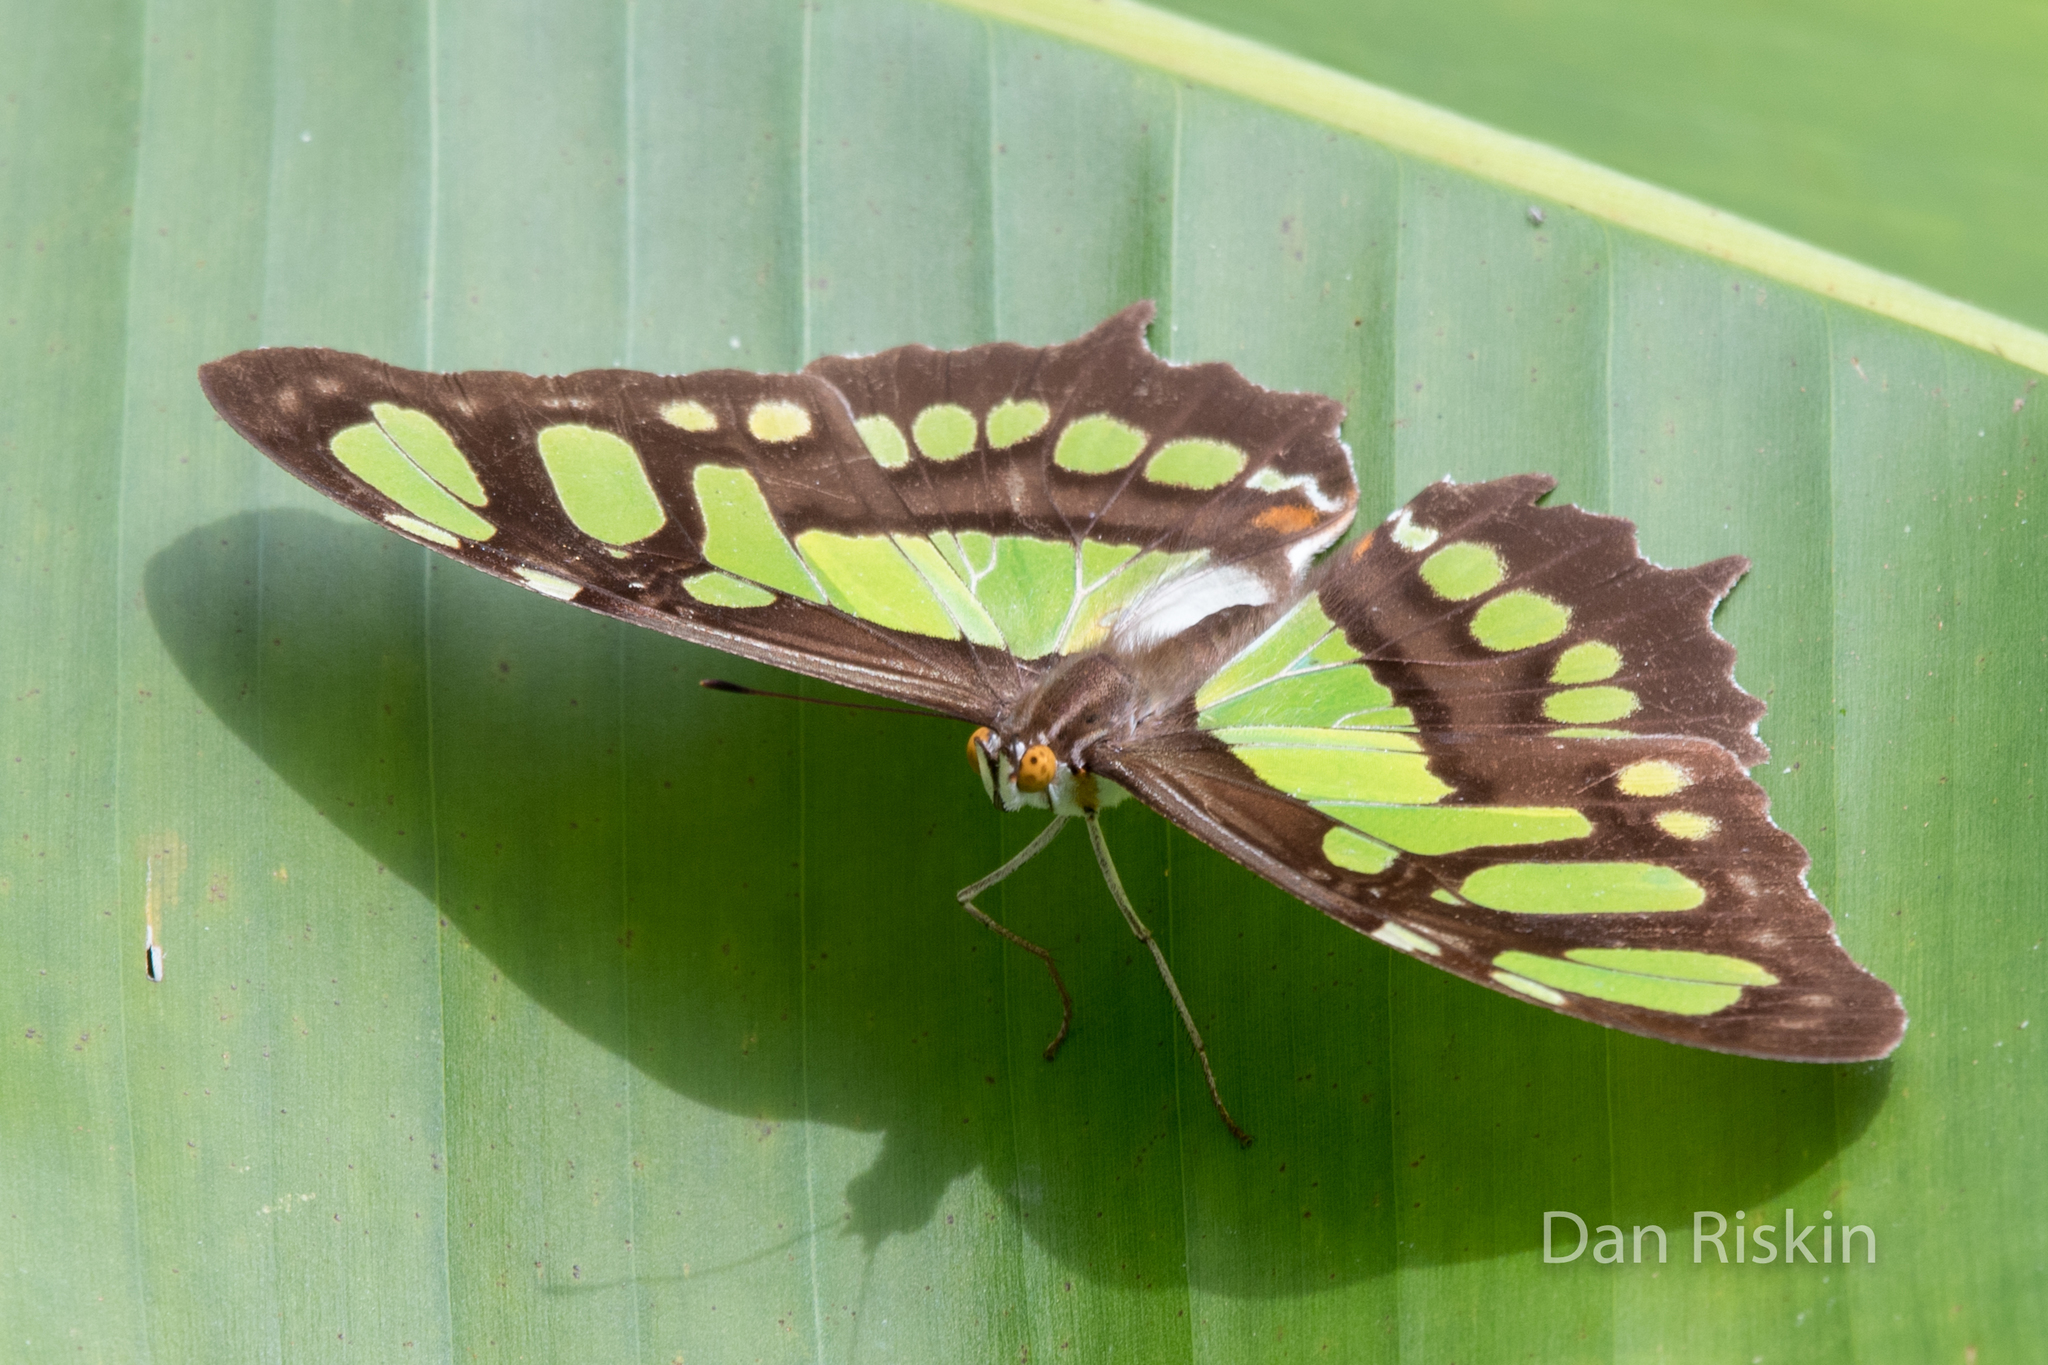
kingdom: Animalia
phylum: Arthropoda
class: Insecta
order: Lepidoptera
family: Nymphalidae
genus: Siproeta
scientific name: Siproeta stelenes
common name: Malachite
